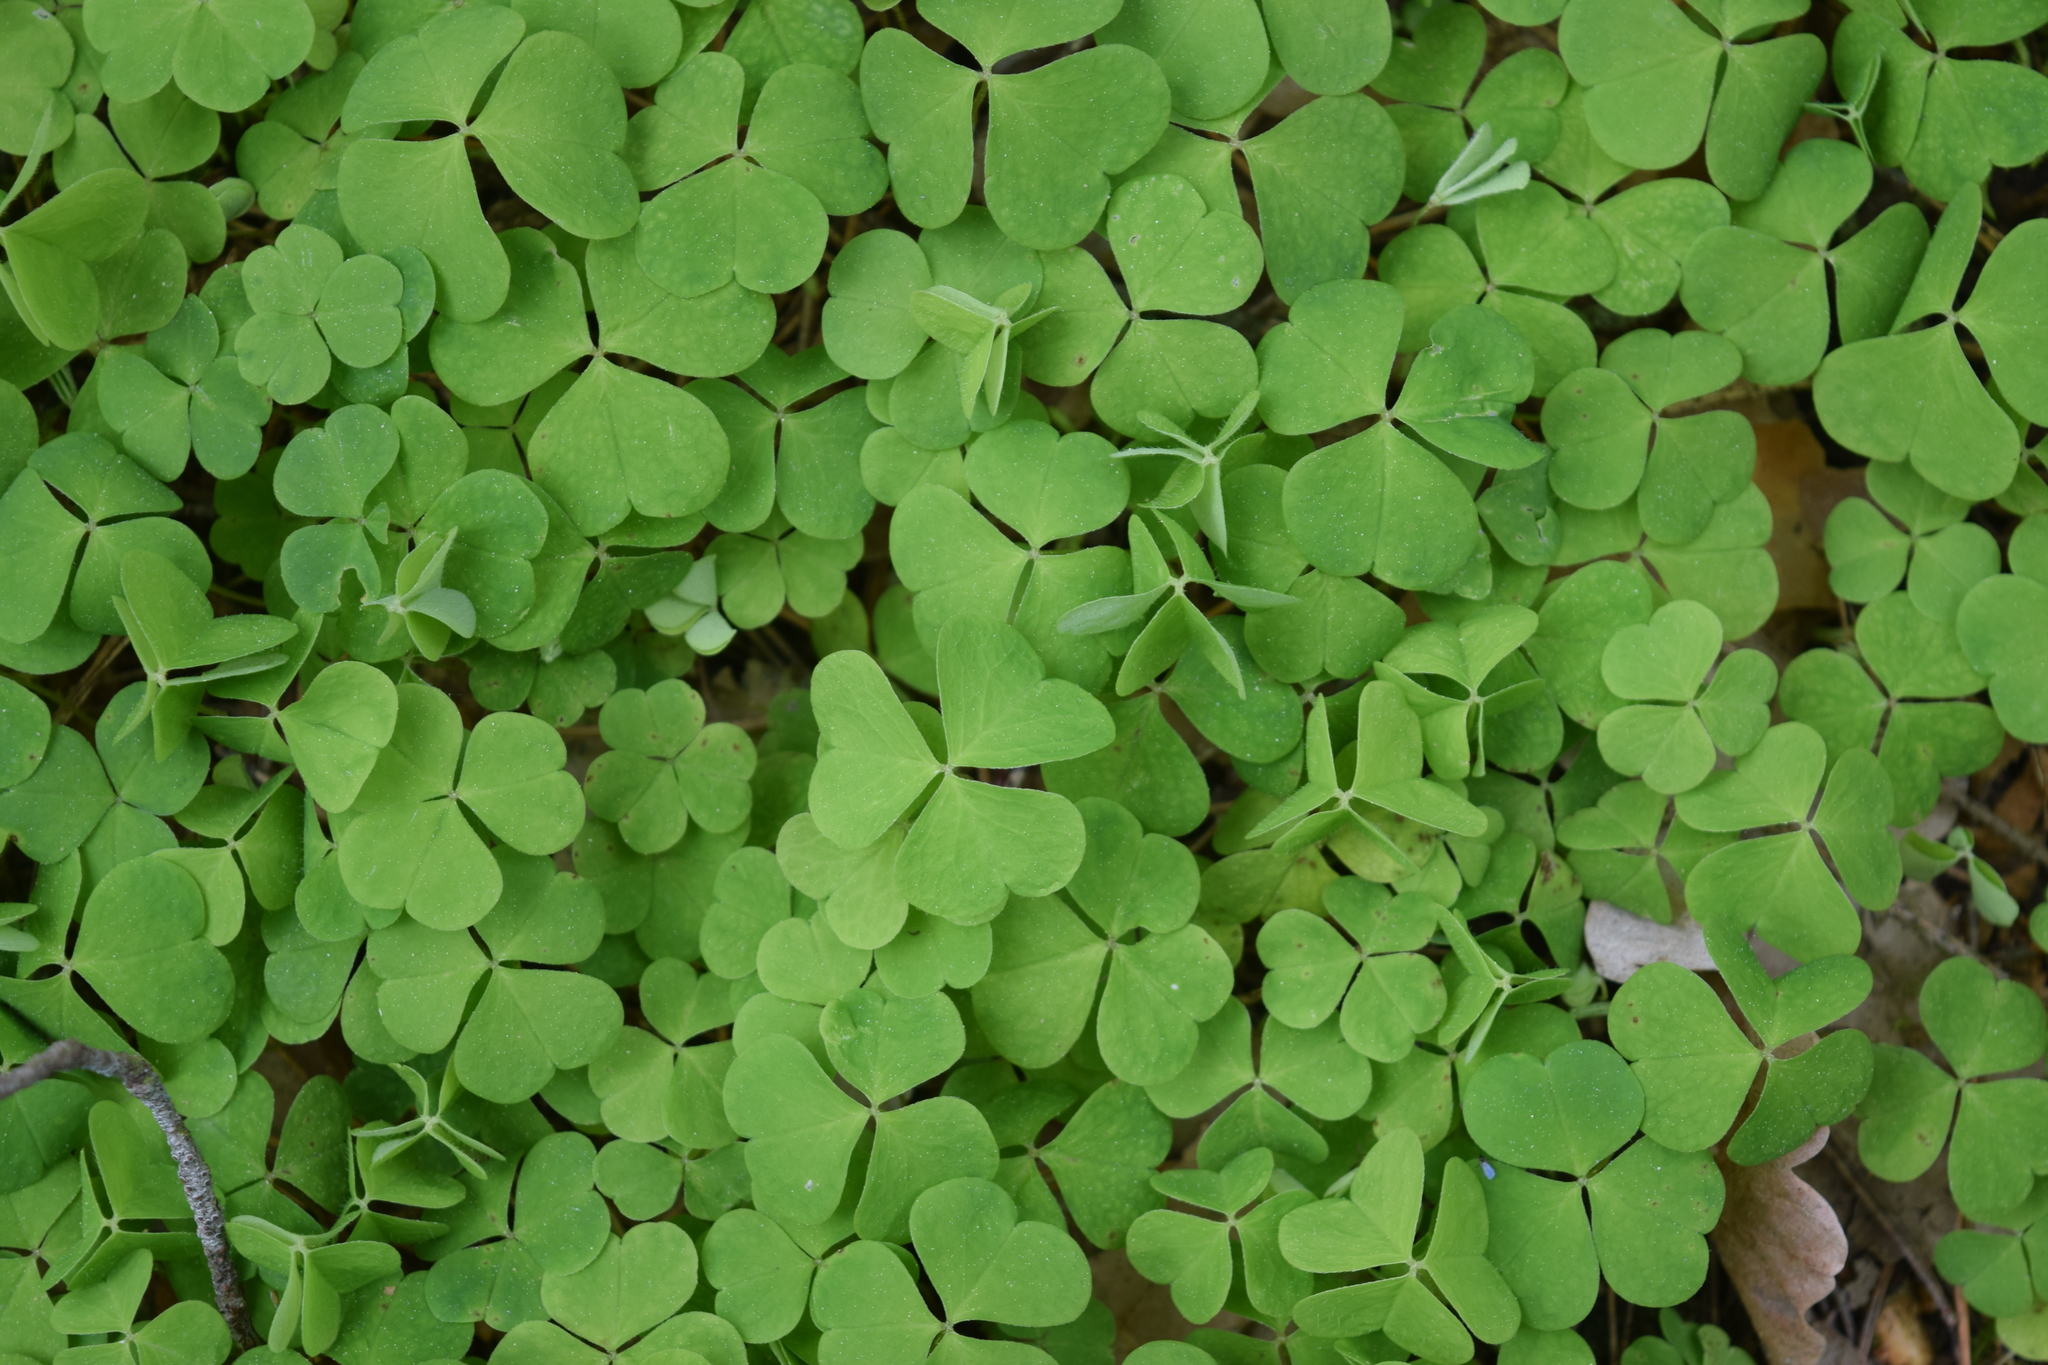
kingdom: Plantae
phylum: Tracheophyta
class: Magnoliopsida
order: Oxalidales
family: Oxalidaceae
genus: Oxalis
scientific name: Oxalis acetosella
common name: Wood-sorrel
